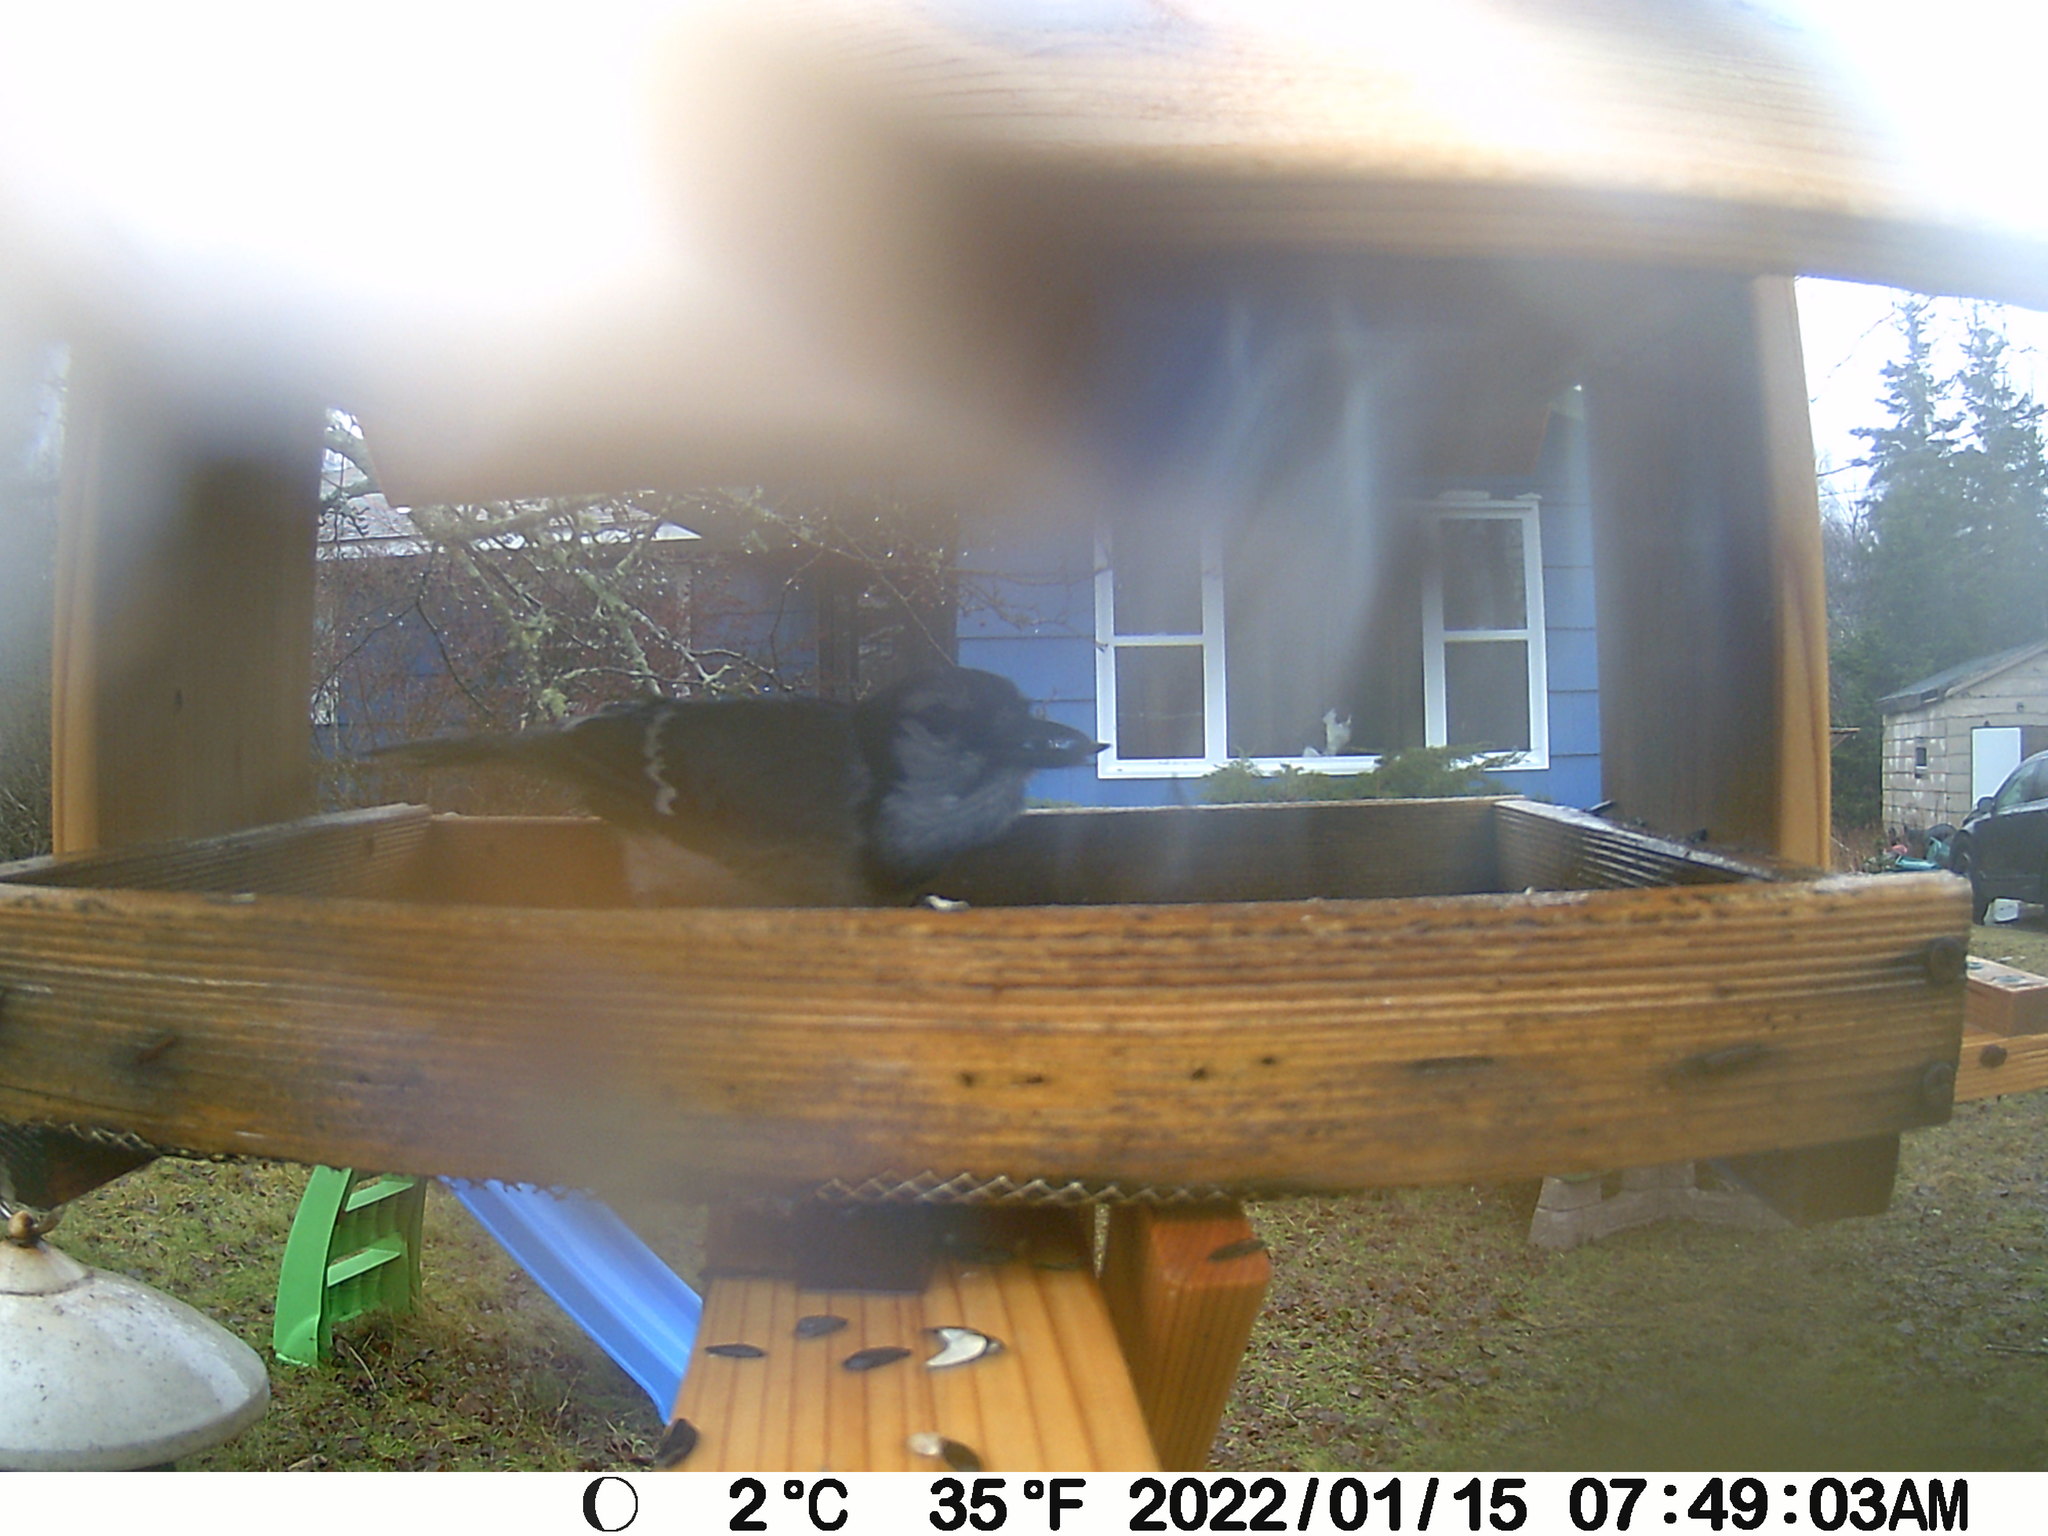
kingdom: Animalia
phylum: Chordata
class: Aves
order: Passeriformes
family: Corvidae
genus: Cyanocitta
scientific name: Cyanocitta cristata
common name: Blue jay
